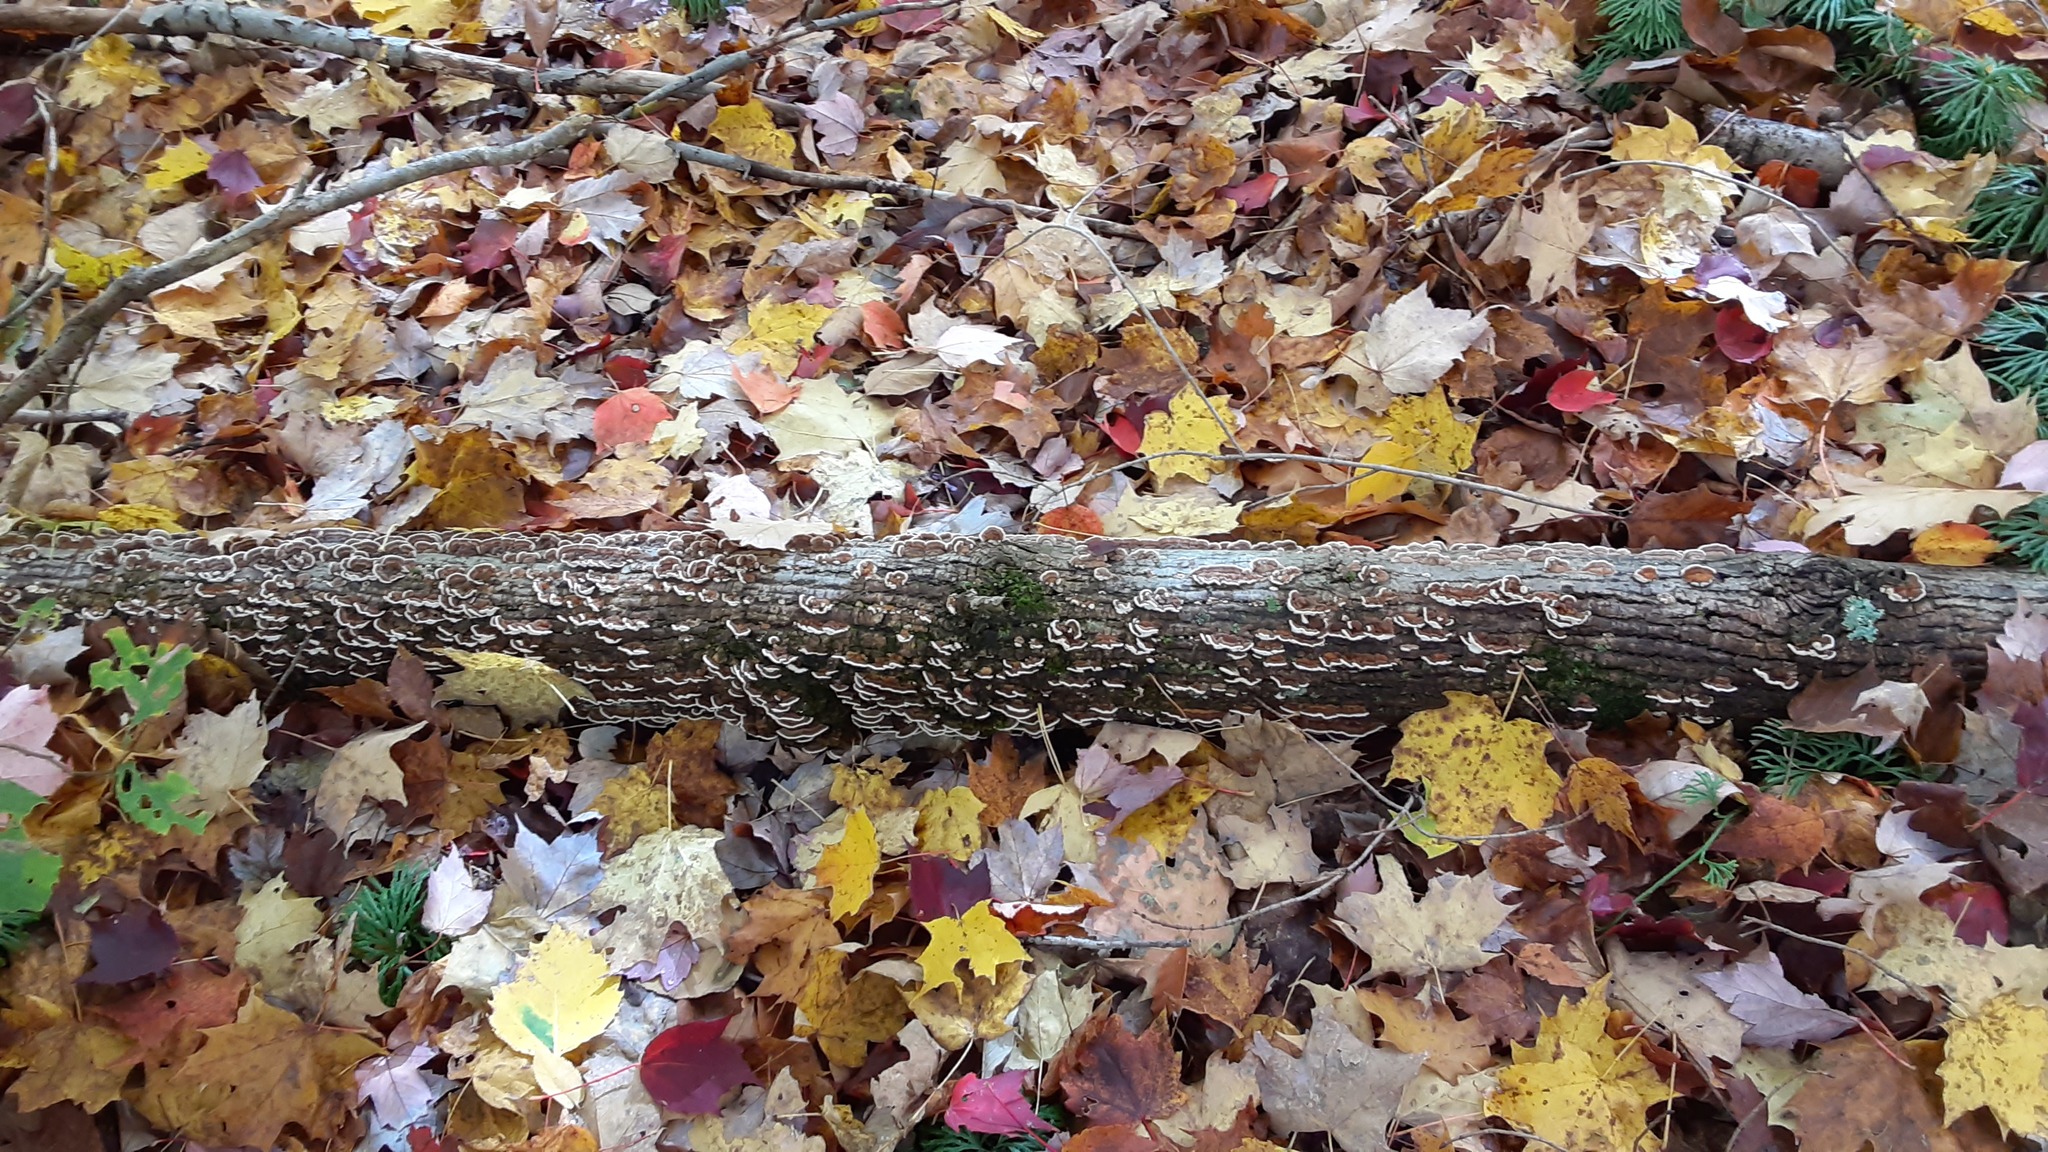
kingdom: Fungi
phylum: Basidiomycota
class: Agaricomycetes
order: Polyporales
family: Polyporaceae
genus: Trametes
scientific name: Trametes versicolor
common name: Turkeytail
